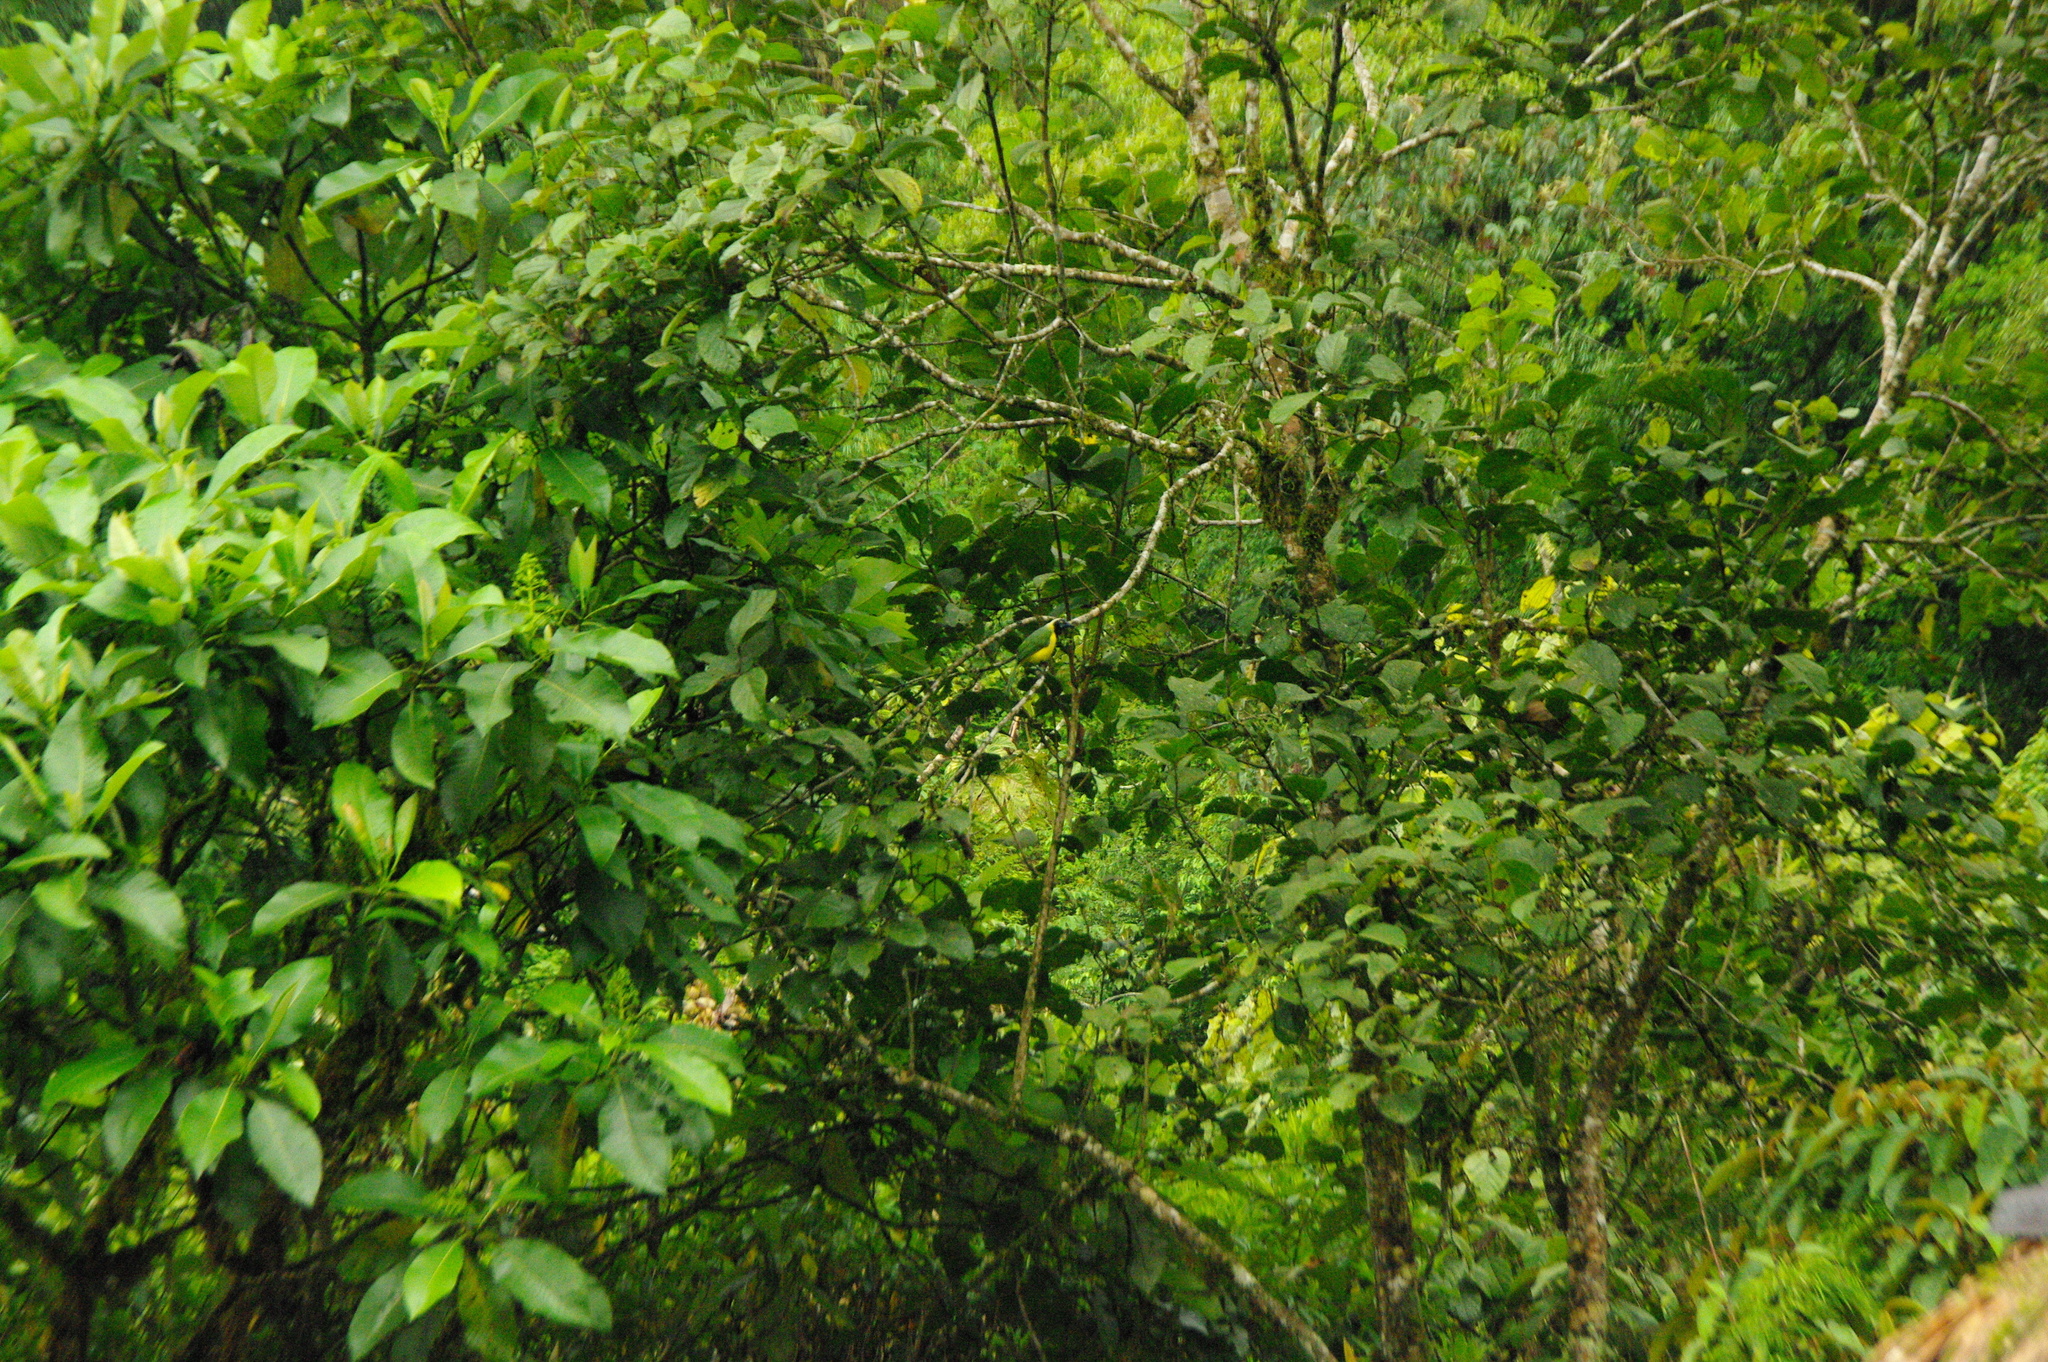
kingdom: Animalia
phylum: Chordata
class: Aves
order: Passeriformes
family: Corvidae
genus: Cyanocorax
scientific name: Cyanocorax yncas
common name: Green jay
